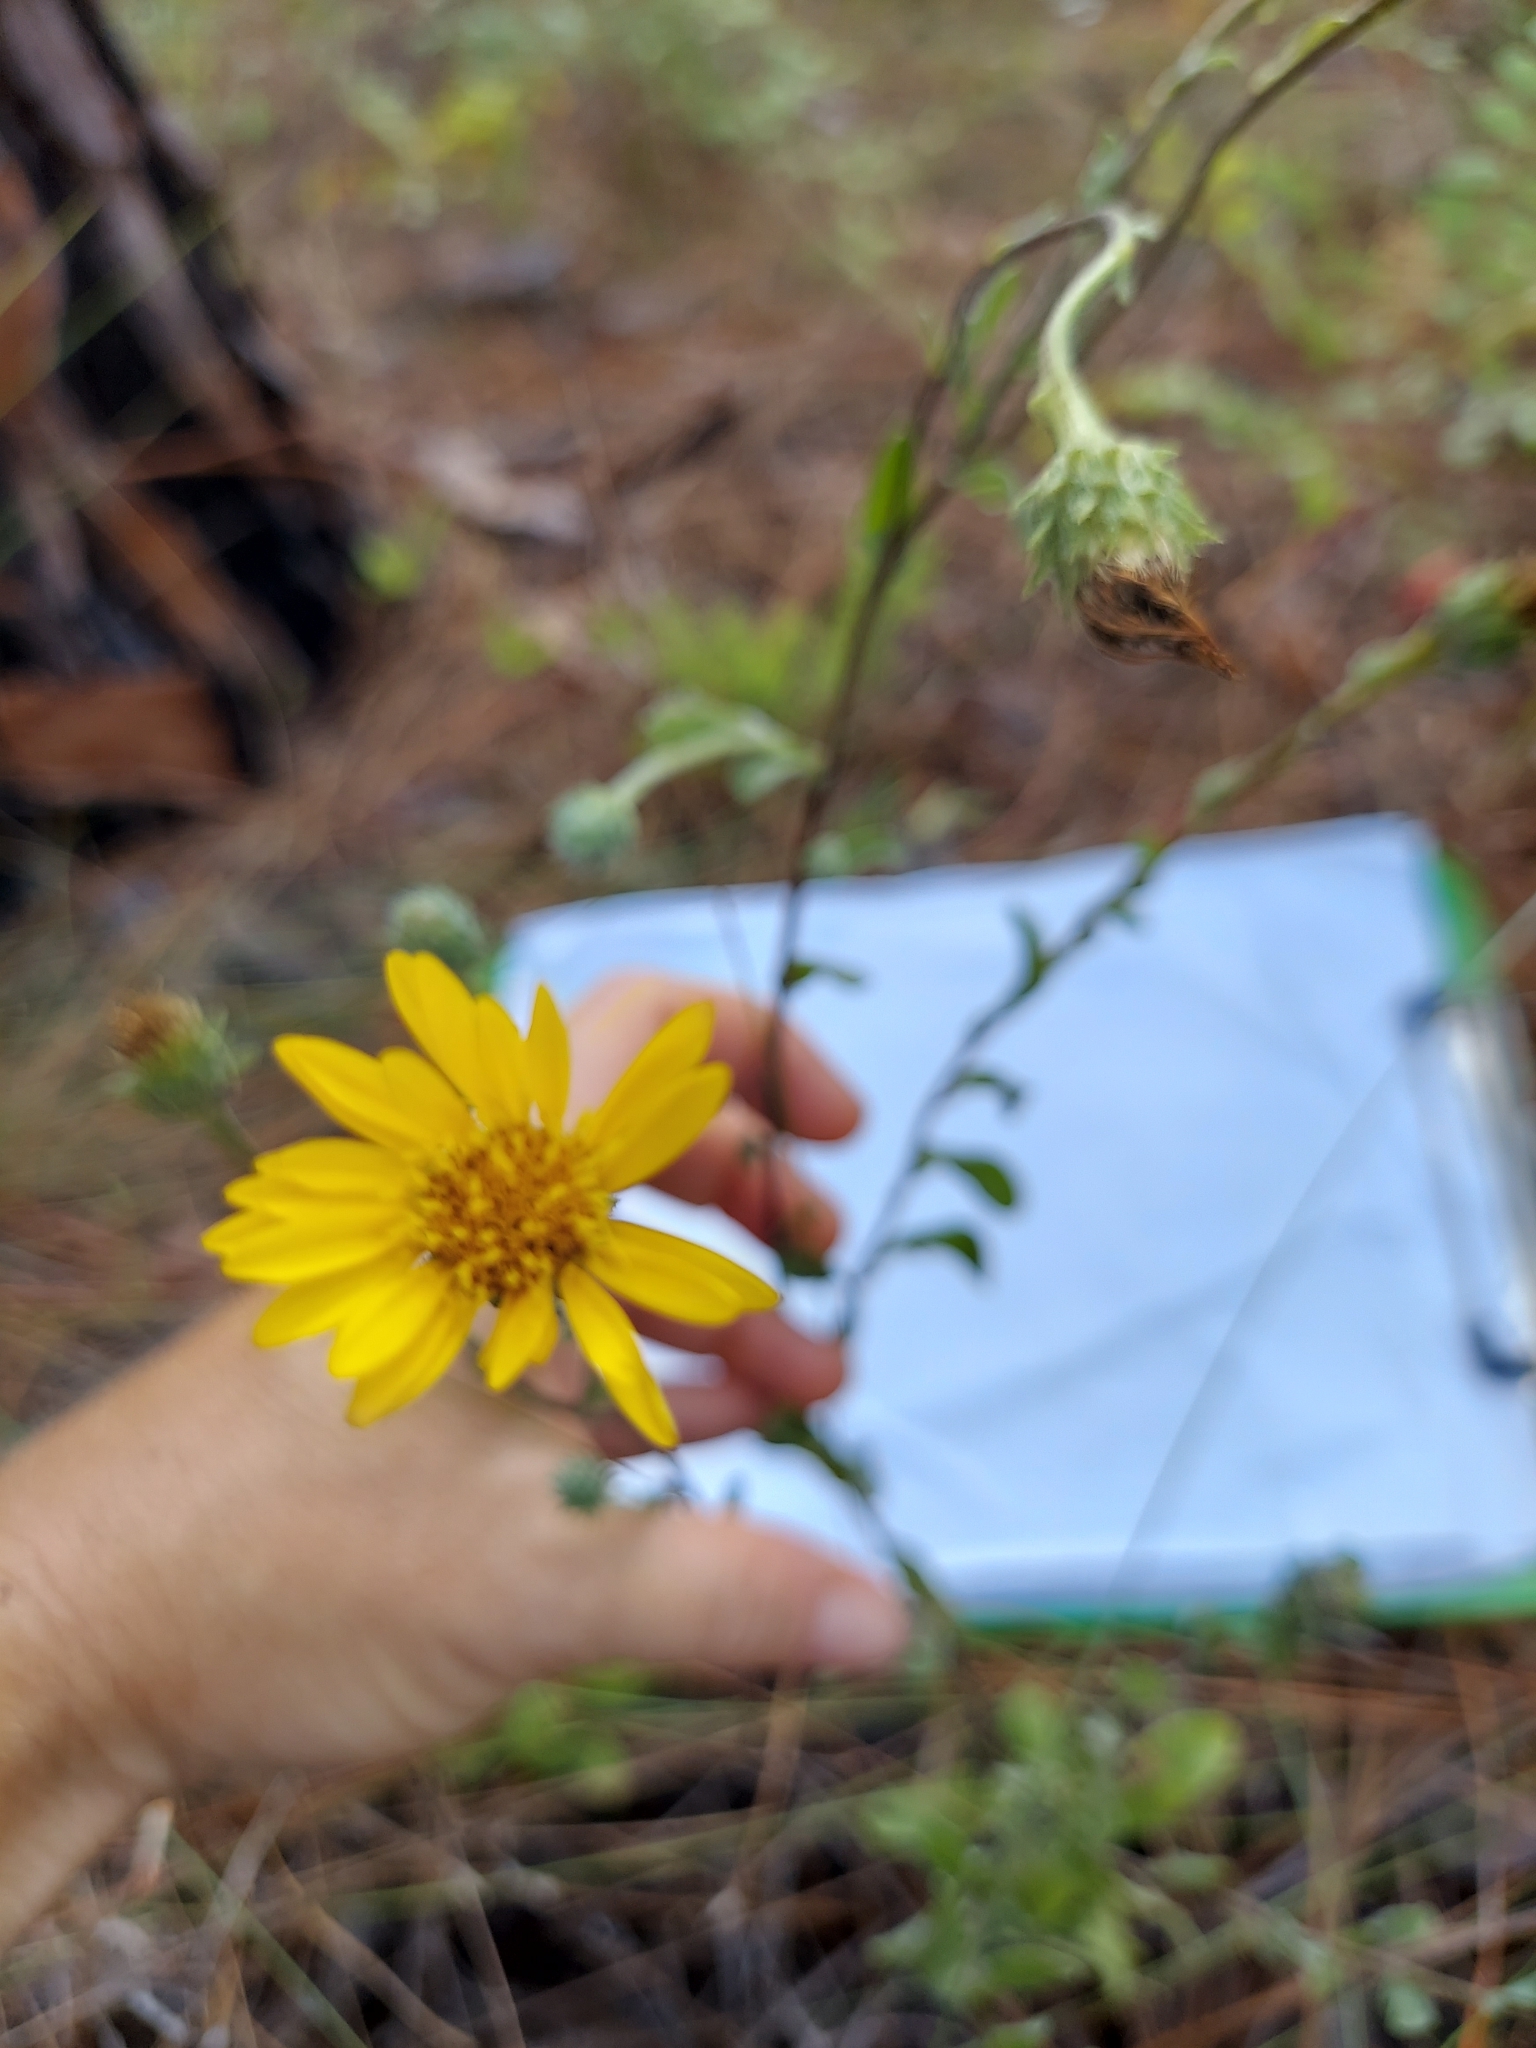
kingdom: Plantae
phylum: Tracheophyta
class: Magnoliopsida
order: Asterales
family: Asteraceae
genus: Chrysopsis
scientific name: Chrysopsis latisquamea
